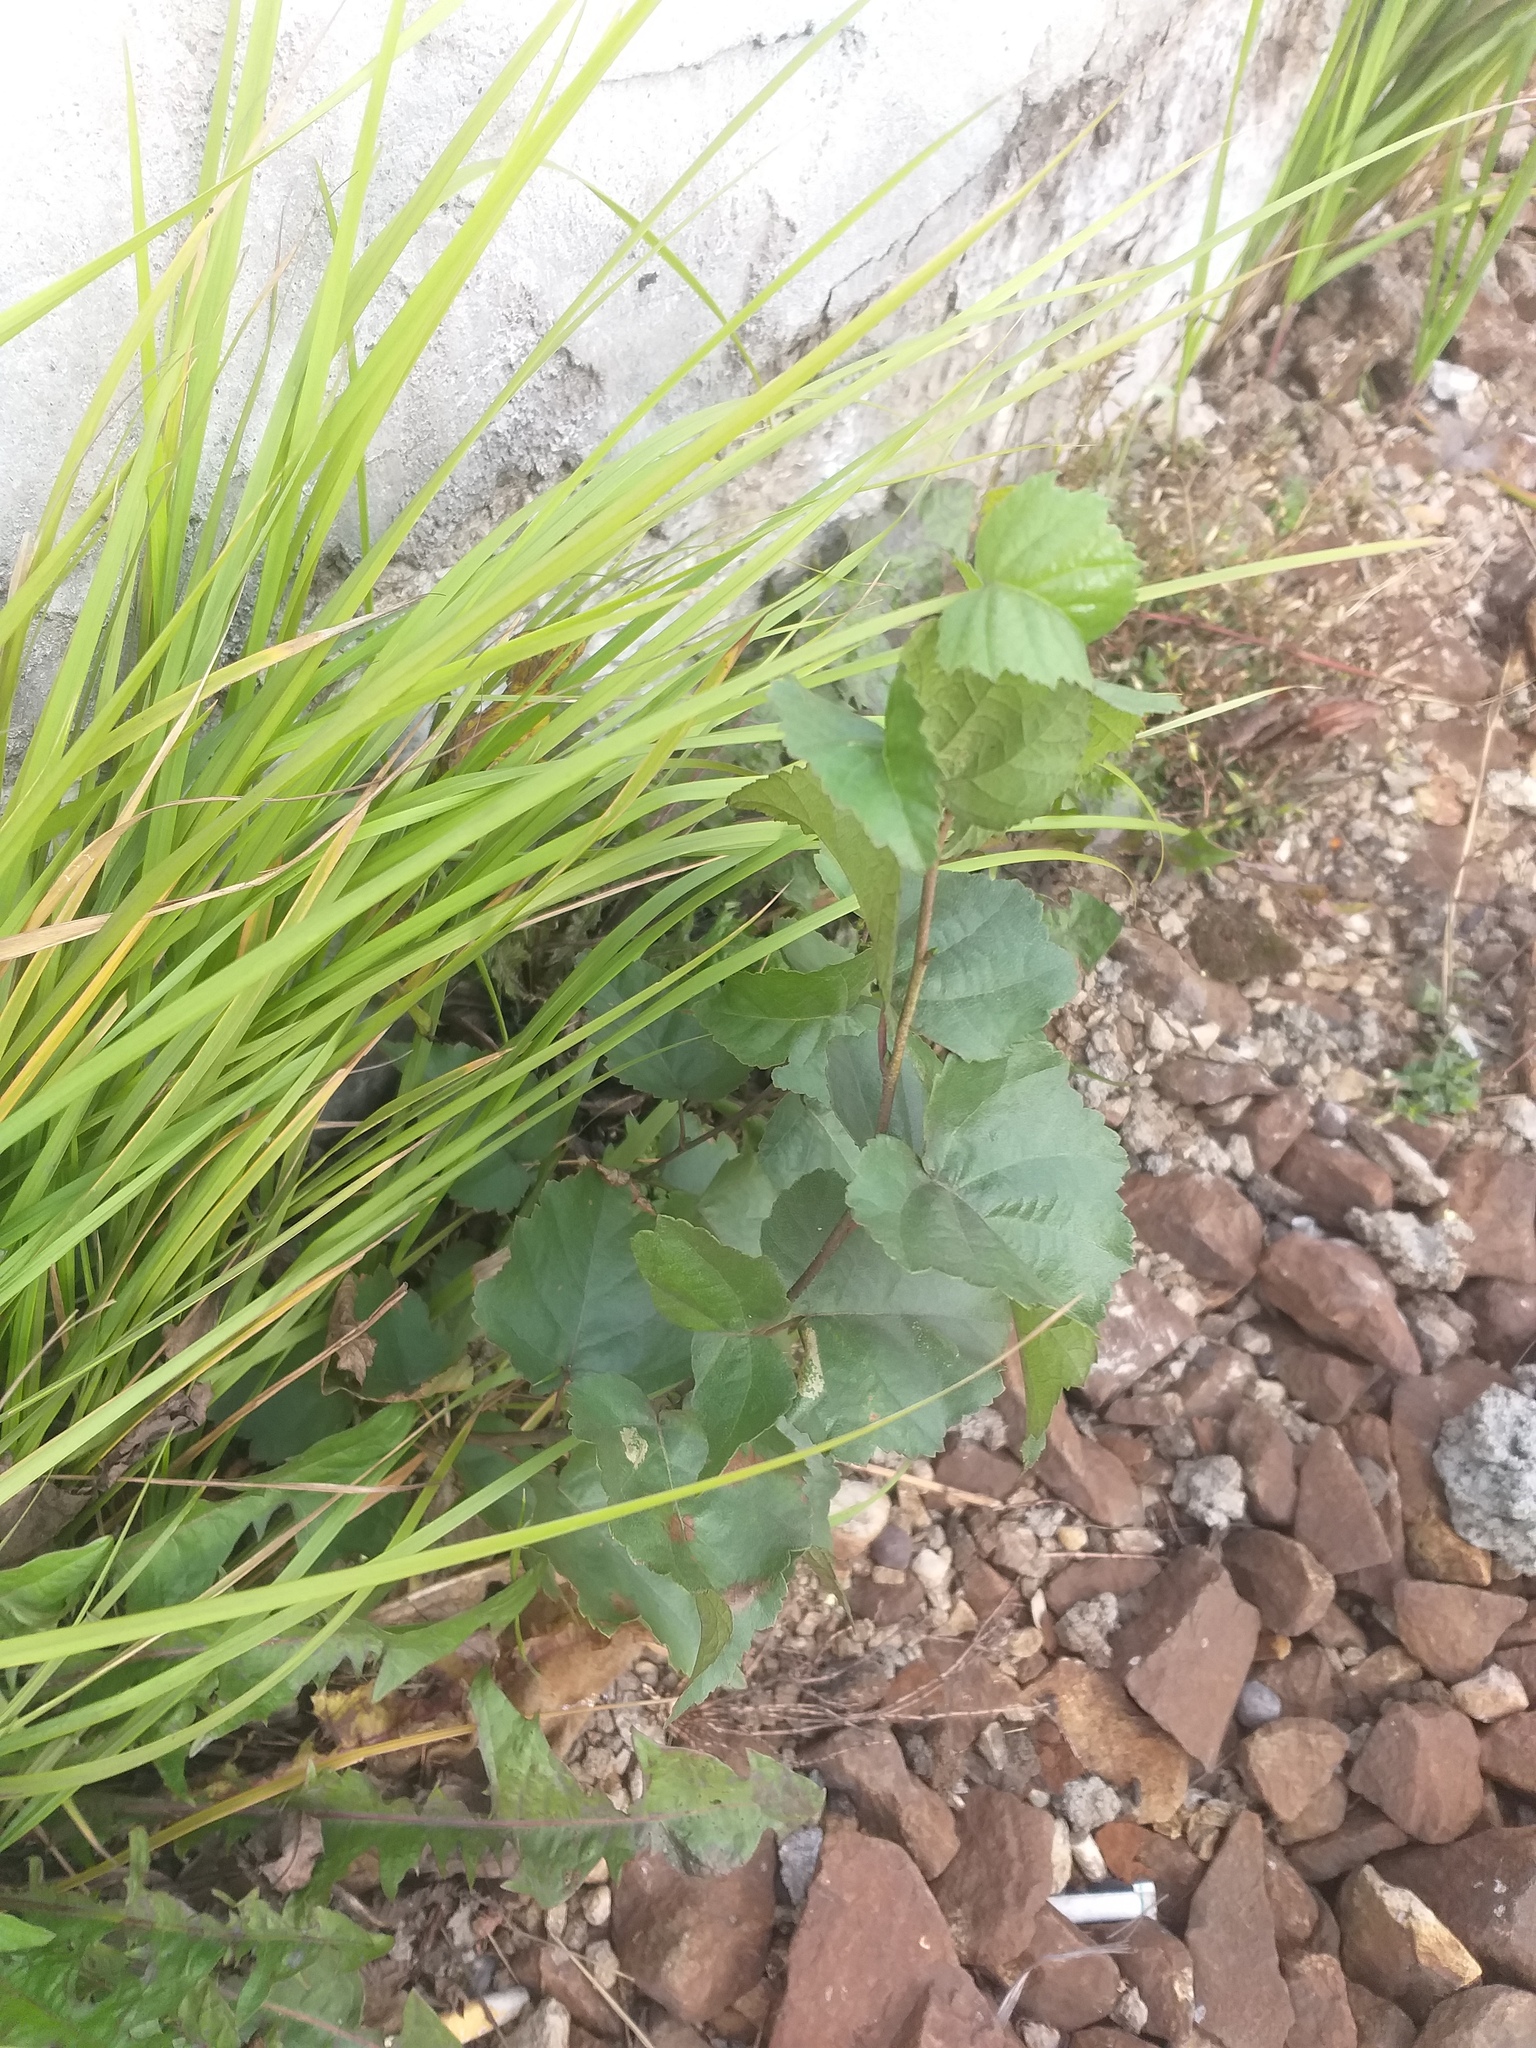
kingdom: Plantae
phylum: Tracheophyta
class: Magnoliopsida
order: Fagales
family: Betulaceae
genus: Betula
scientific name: Betula pendula
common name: Silver birch
